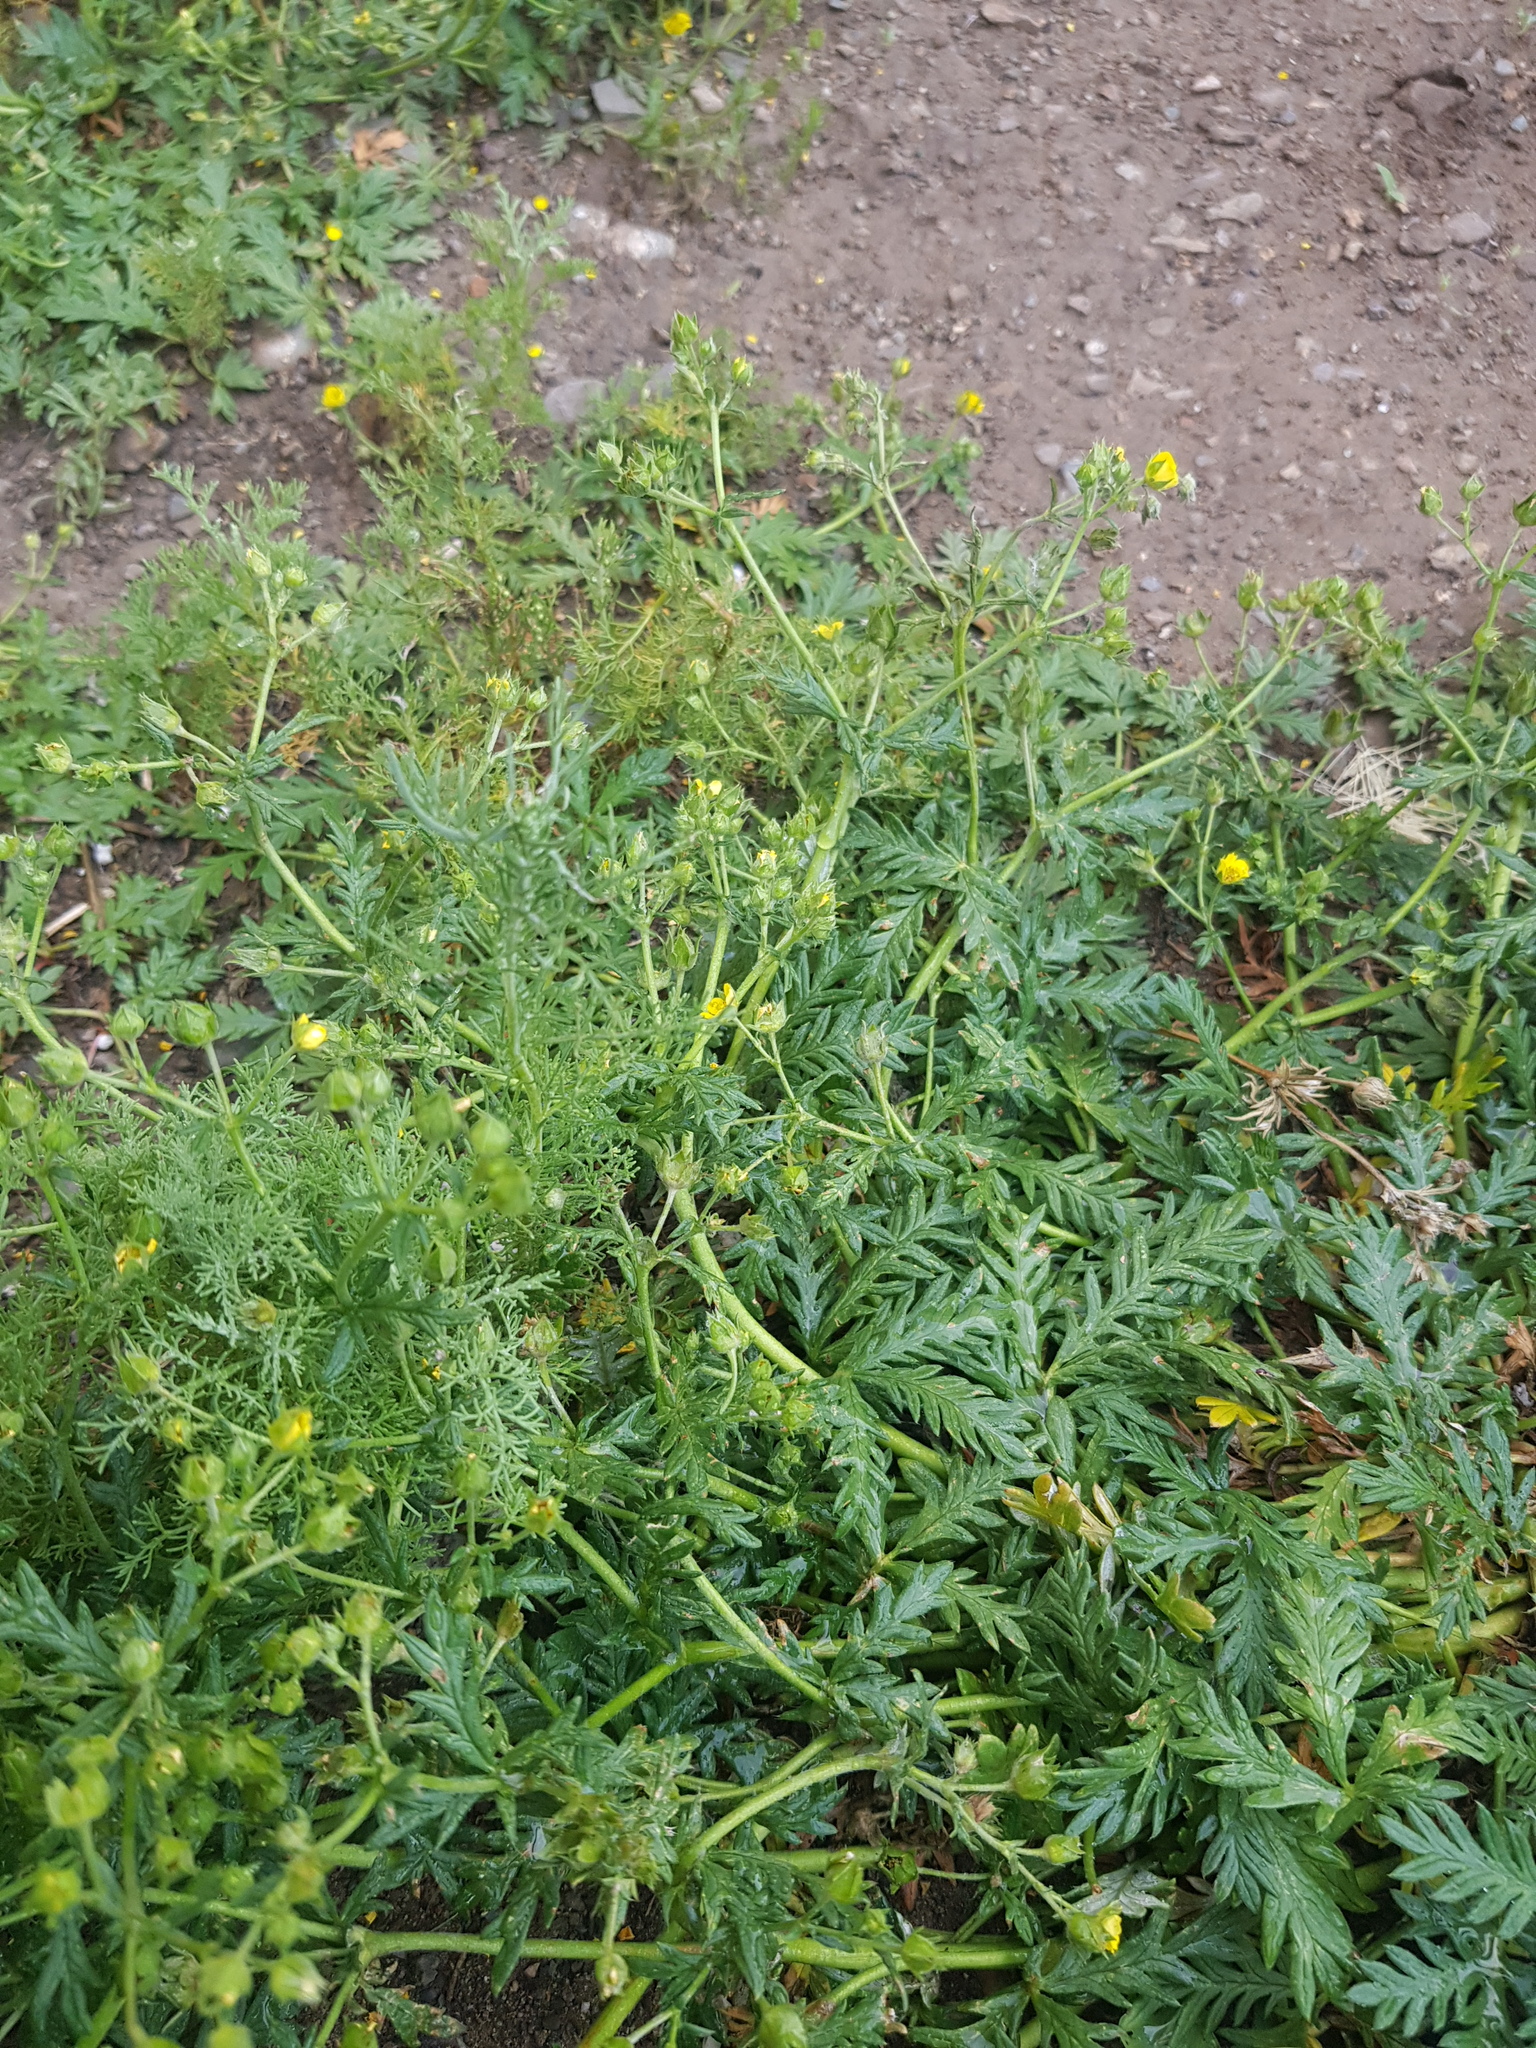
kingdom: Plantae
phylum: Tracheophyta
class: Magnoliopsida
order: Rosales
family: Rosaceae
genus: Potentilla
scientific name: Potentilla ornithopoda
